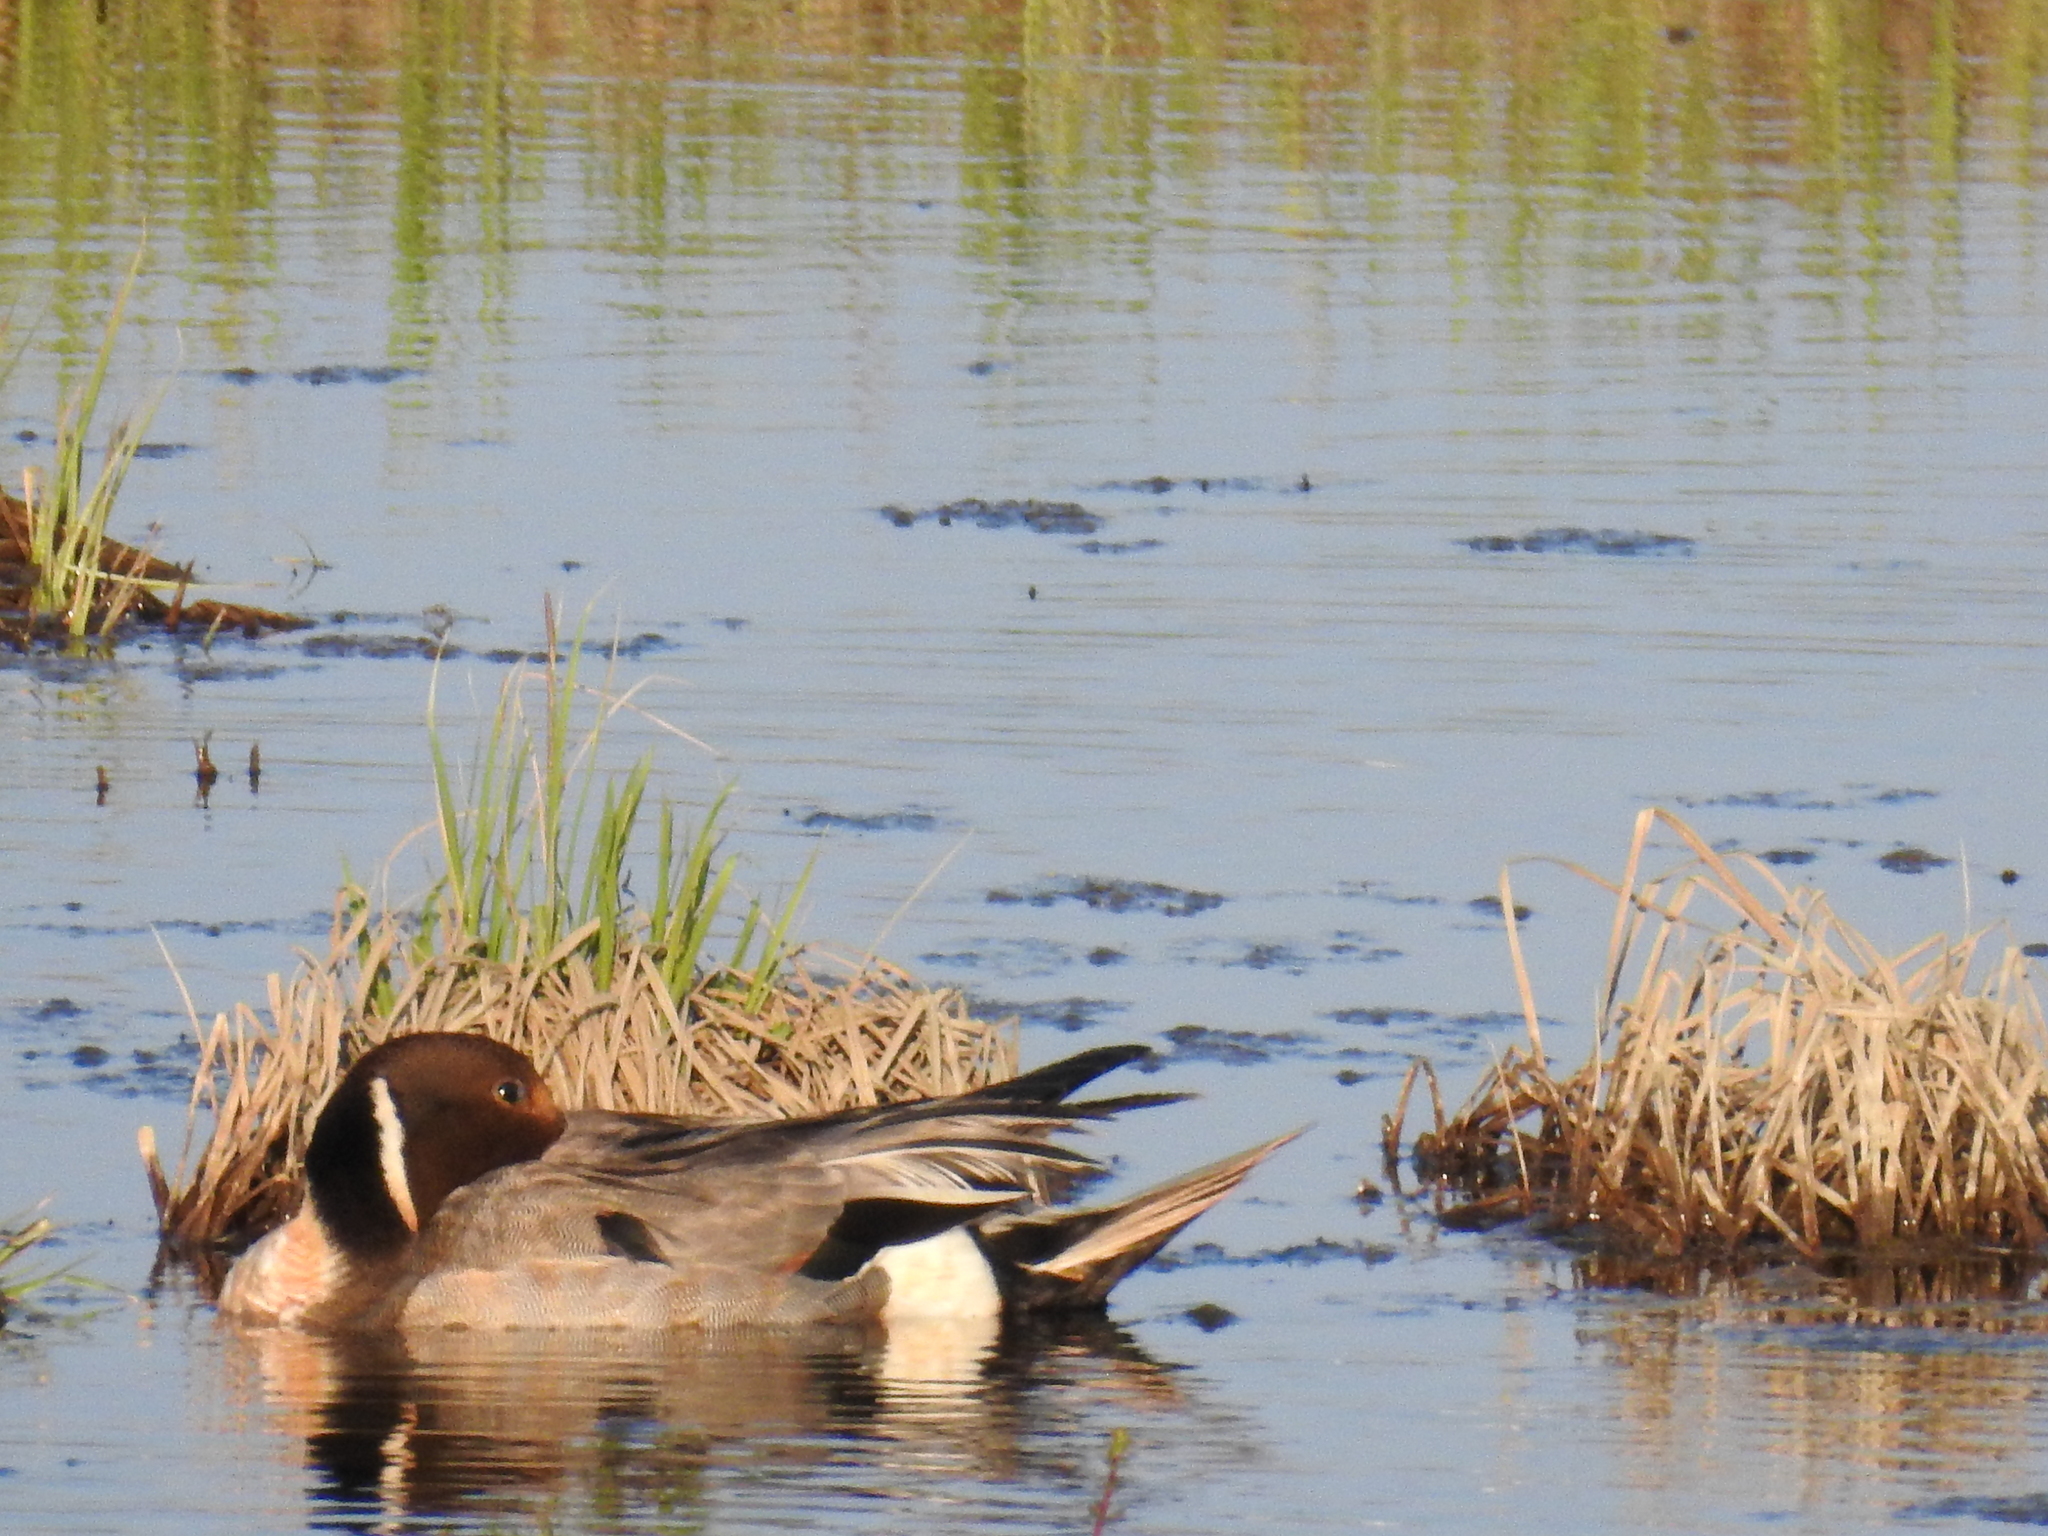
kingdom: Animalia
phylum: Chordata
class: Aves
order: Anseriformes
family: Anatidae
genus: Anas
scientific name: Anas acuta
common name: Northern pintail
